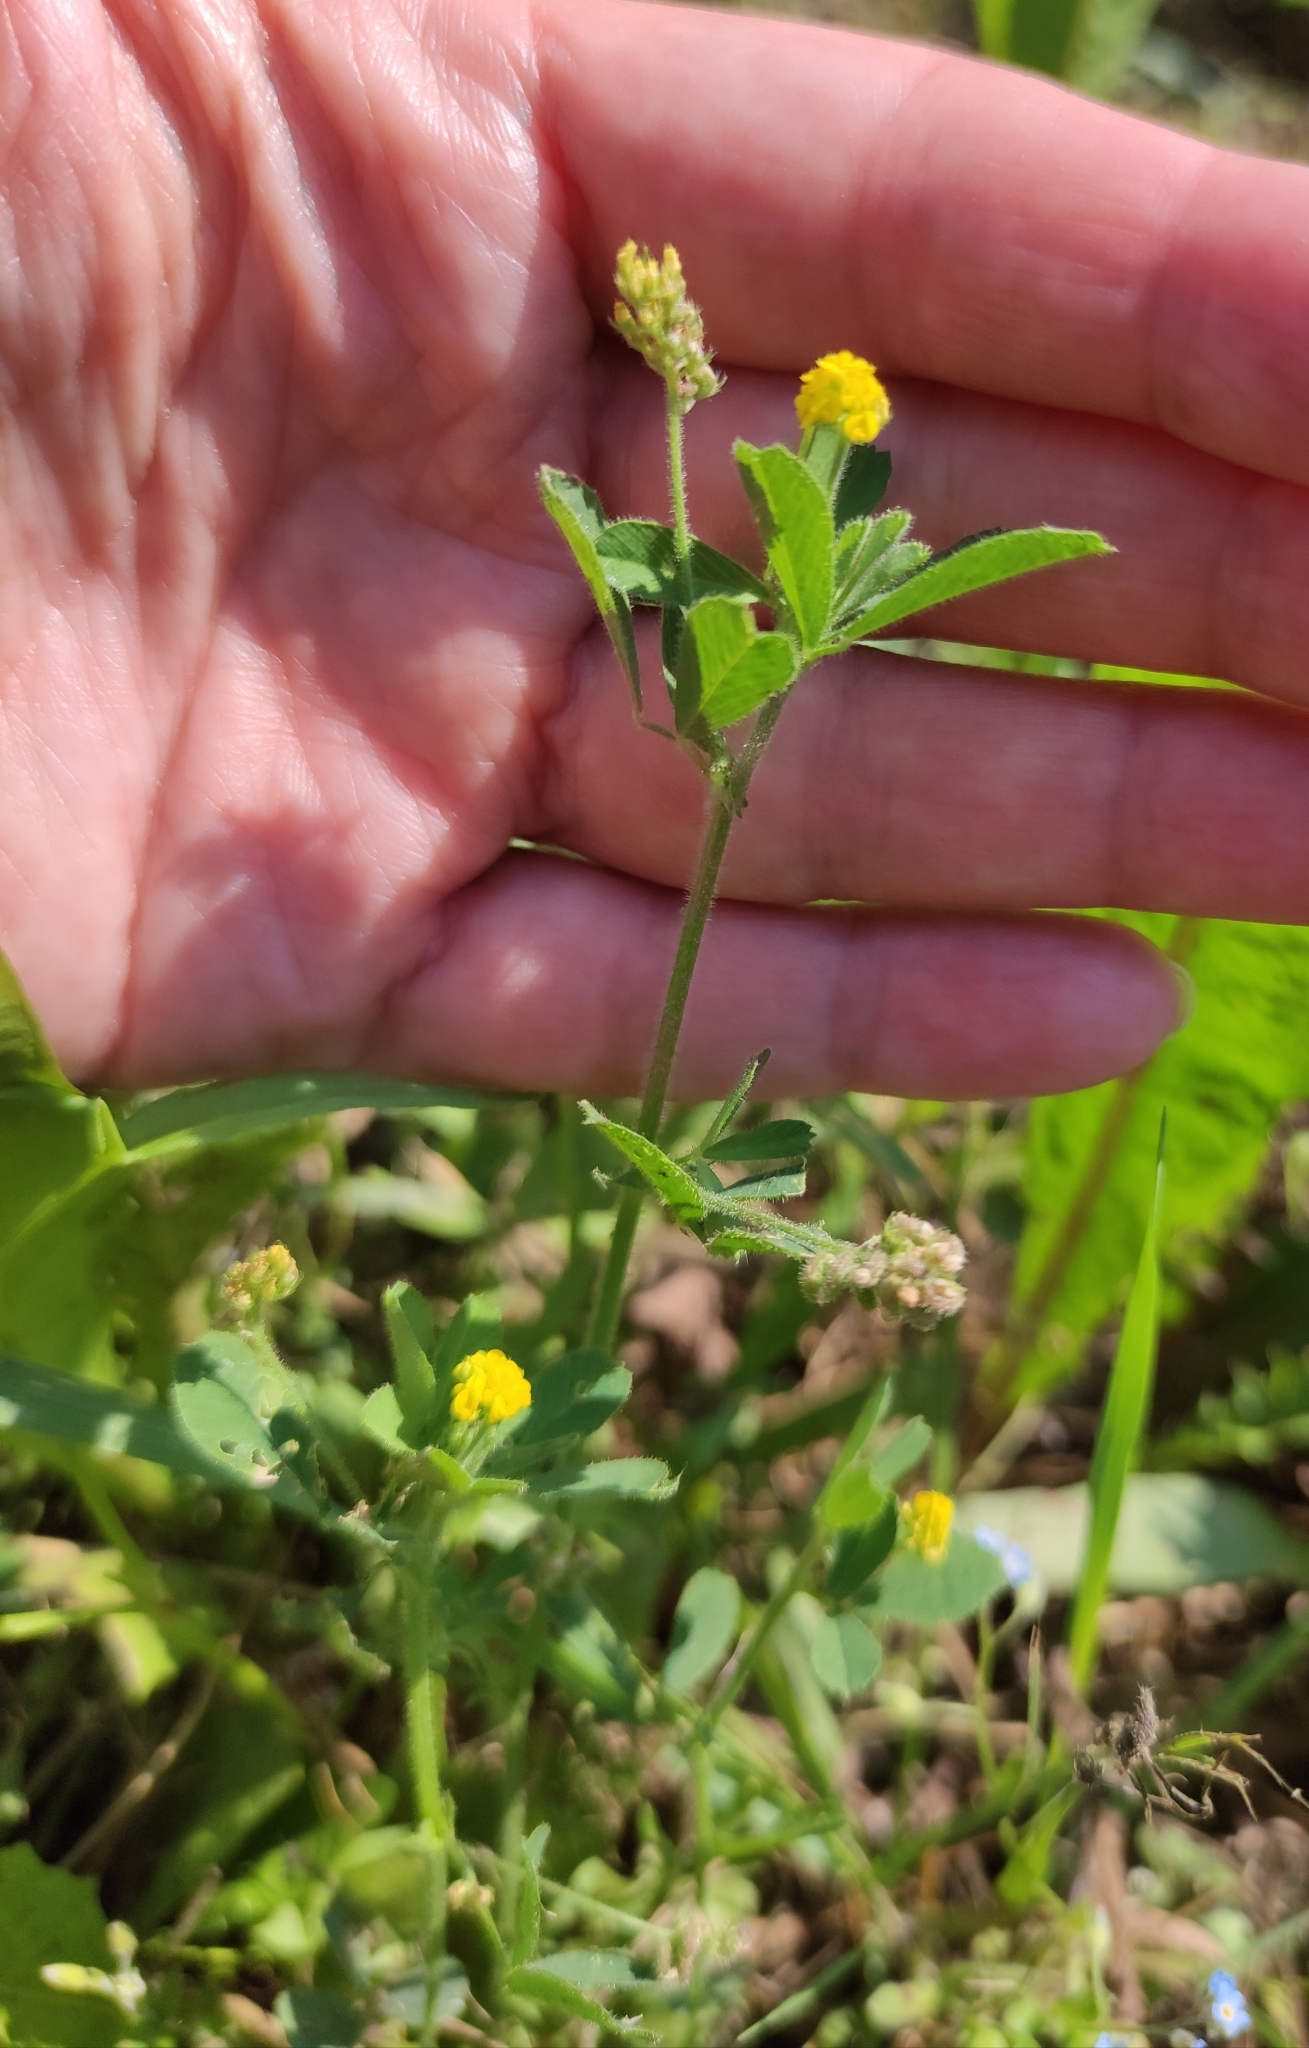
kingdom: Plantae
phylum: Tracheophyta
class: Magnoliopsida
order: Fabales
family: Fabaceae
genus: Medicago
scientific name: Medicago lupulina
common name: Black medick
